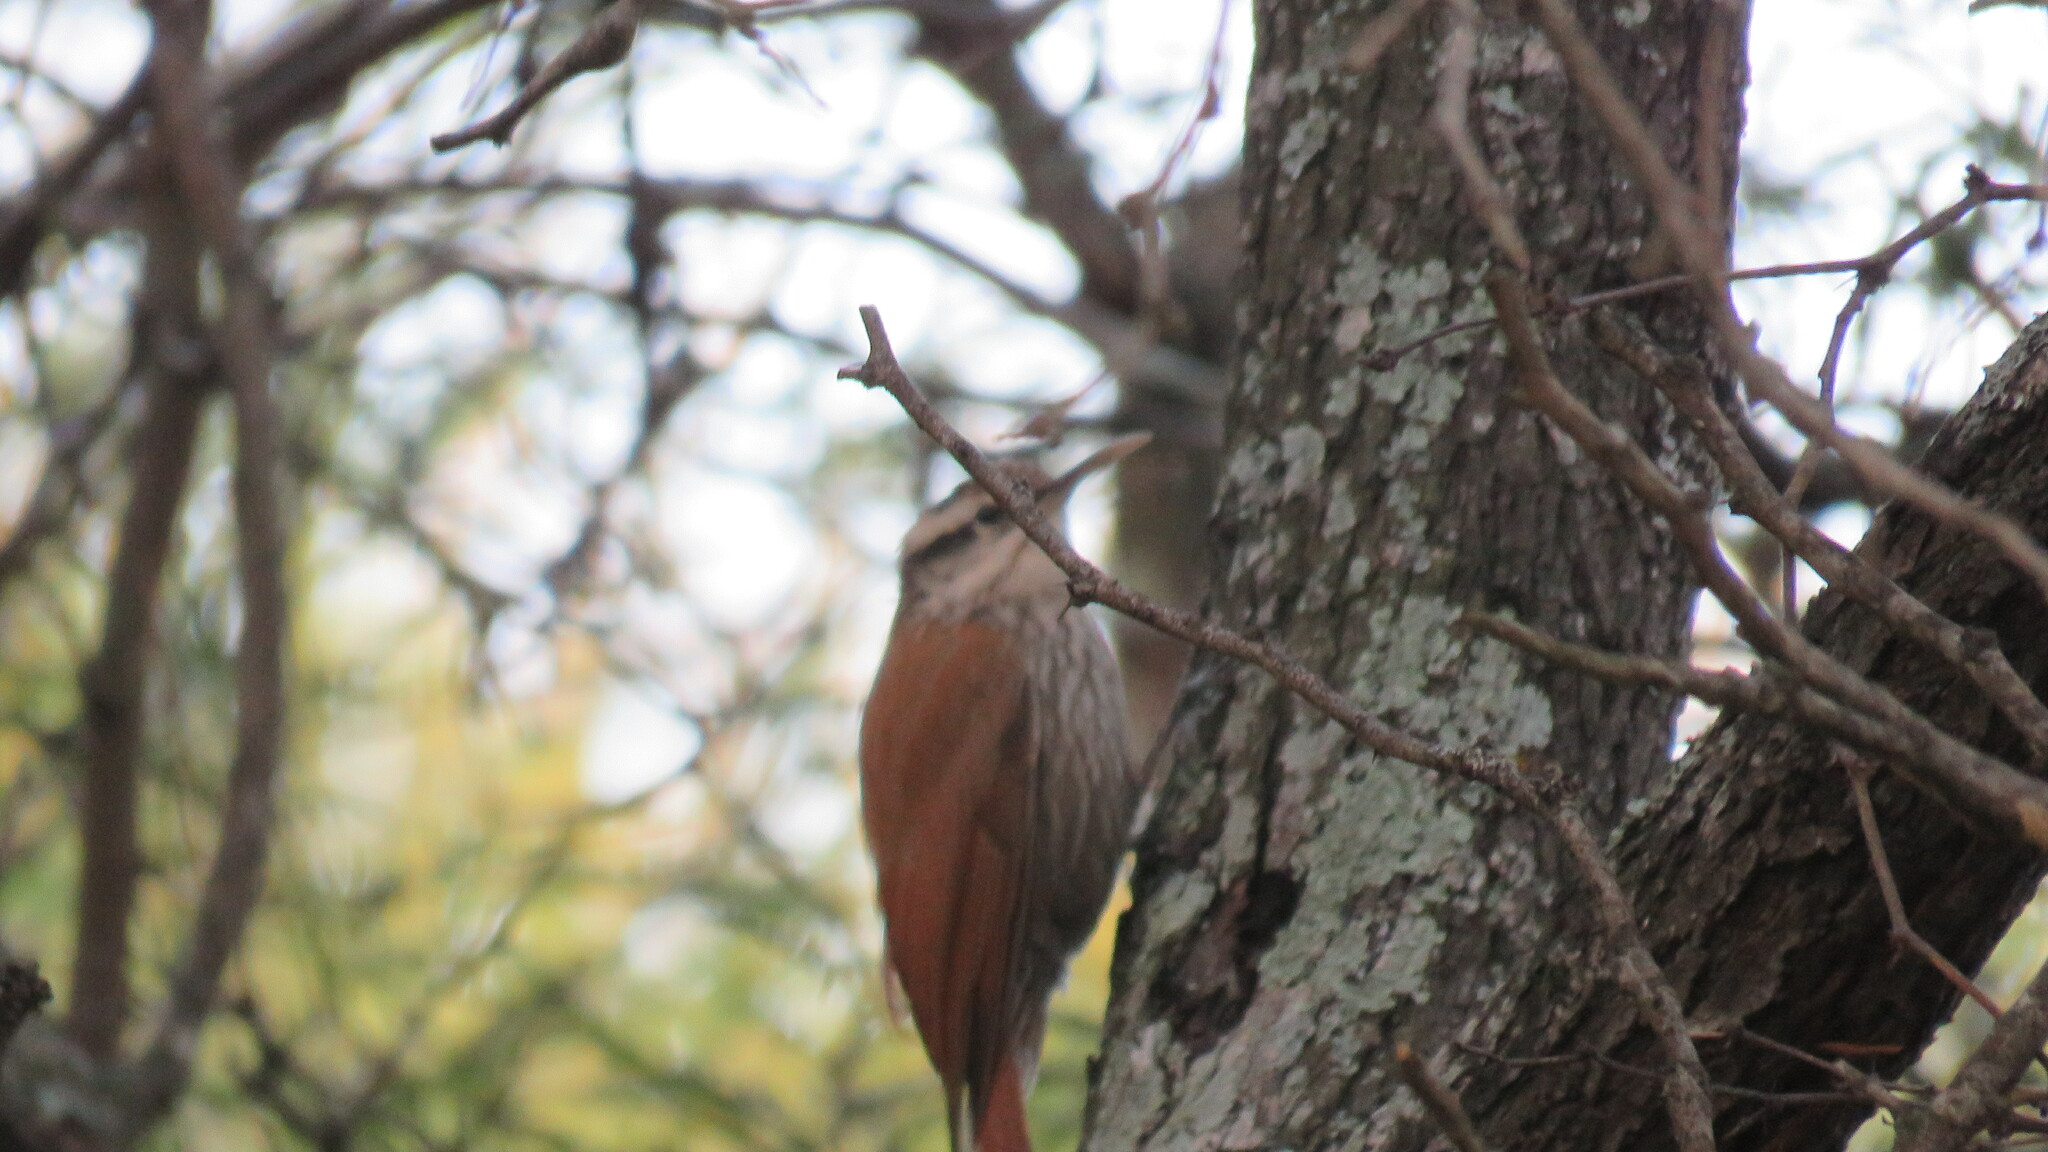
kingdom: Animalia
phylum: Chordata
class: Aves
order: Passeriformes
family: Furnariidae
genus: Lepidocolaptes
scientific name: Lepidocolaptes angustirostris
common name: Narrow-billed woodcreeper
